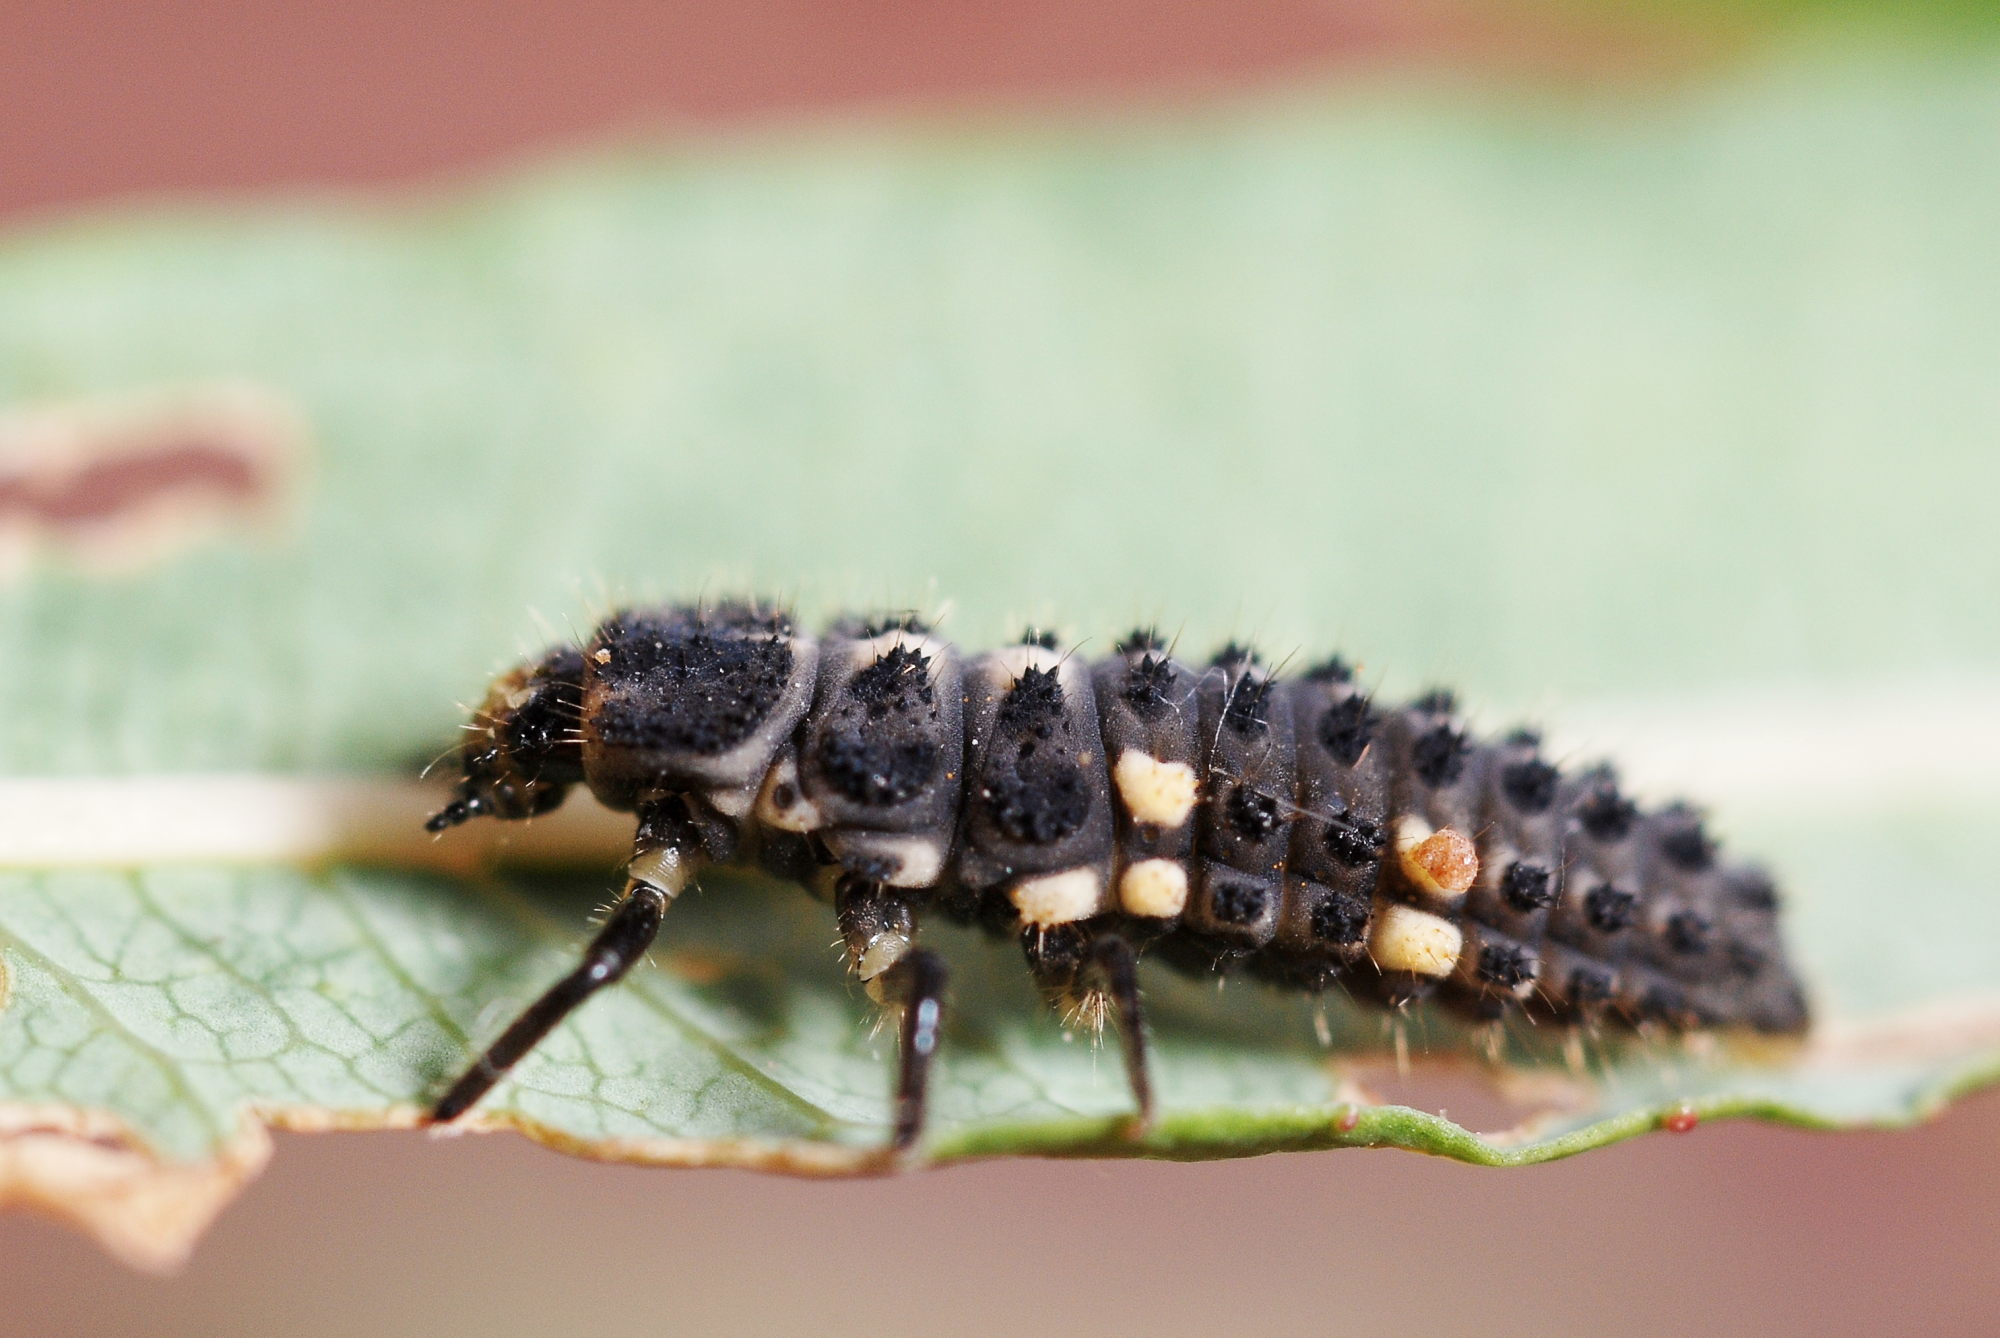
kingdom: Animalia
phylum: Arthropoda
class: Insecta
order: Coleoptera
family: Coccinellidae
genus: Ceratomegilla
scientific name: Ceratomegilla notata
